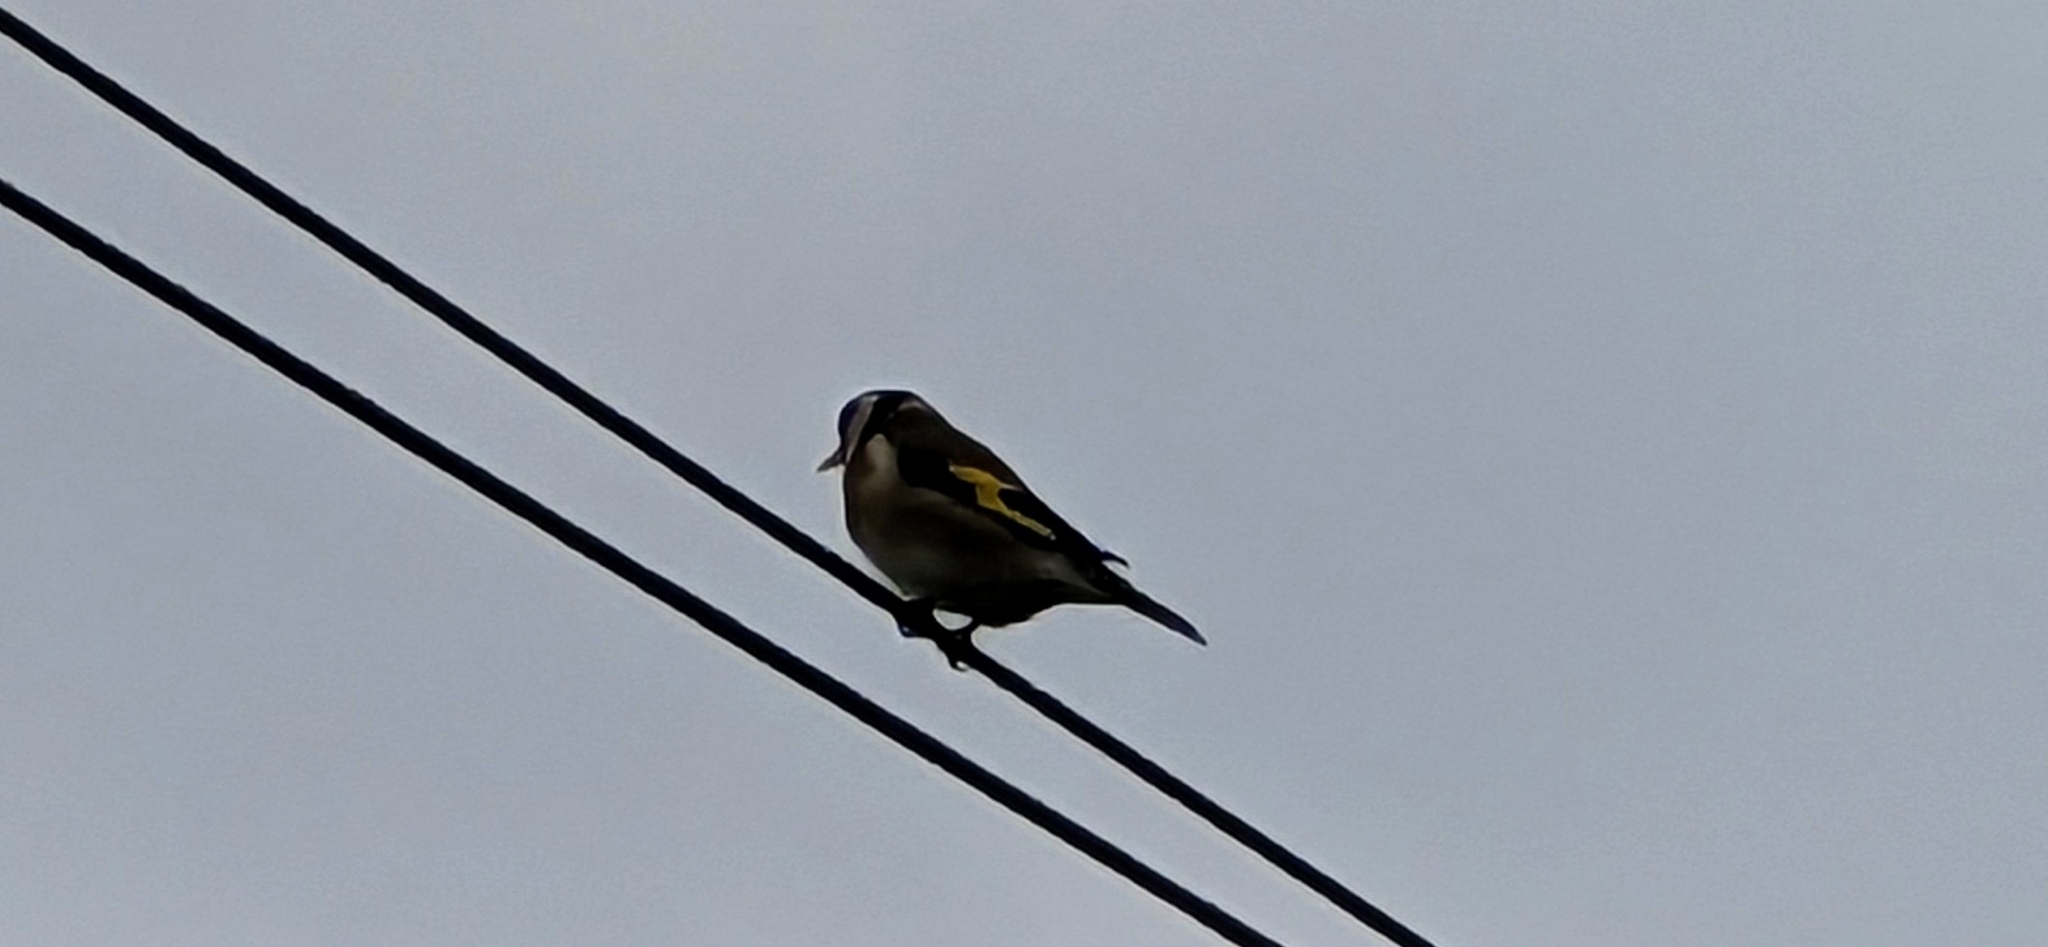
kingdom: Animalia
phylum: Chordata
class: Aves
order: Passeriformes
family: Fringillidae
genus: Carduelis
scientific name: Carduelis carduelis
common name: European goldfinch
